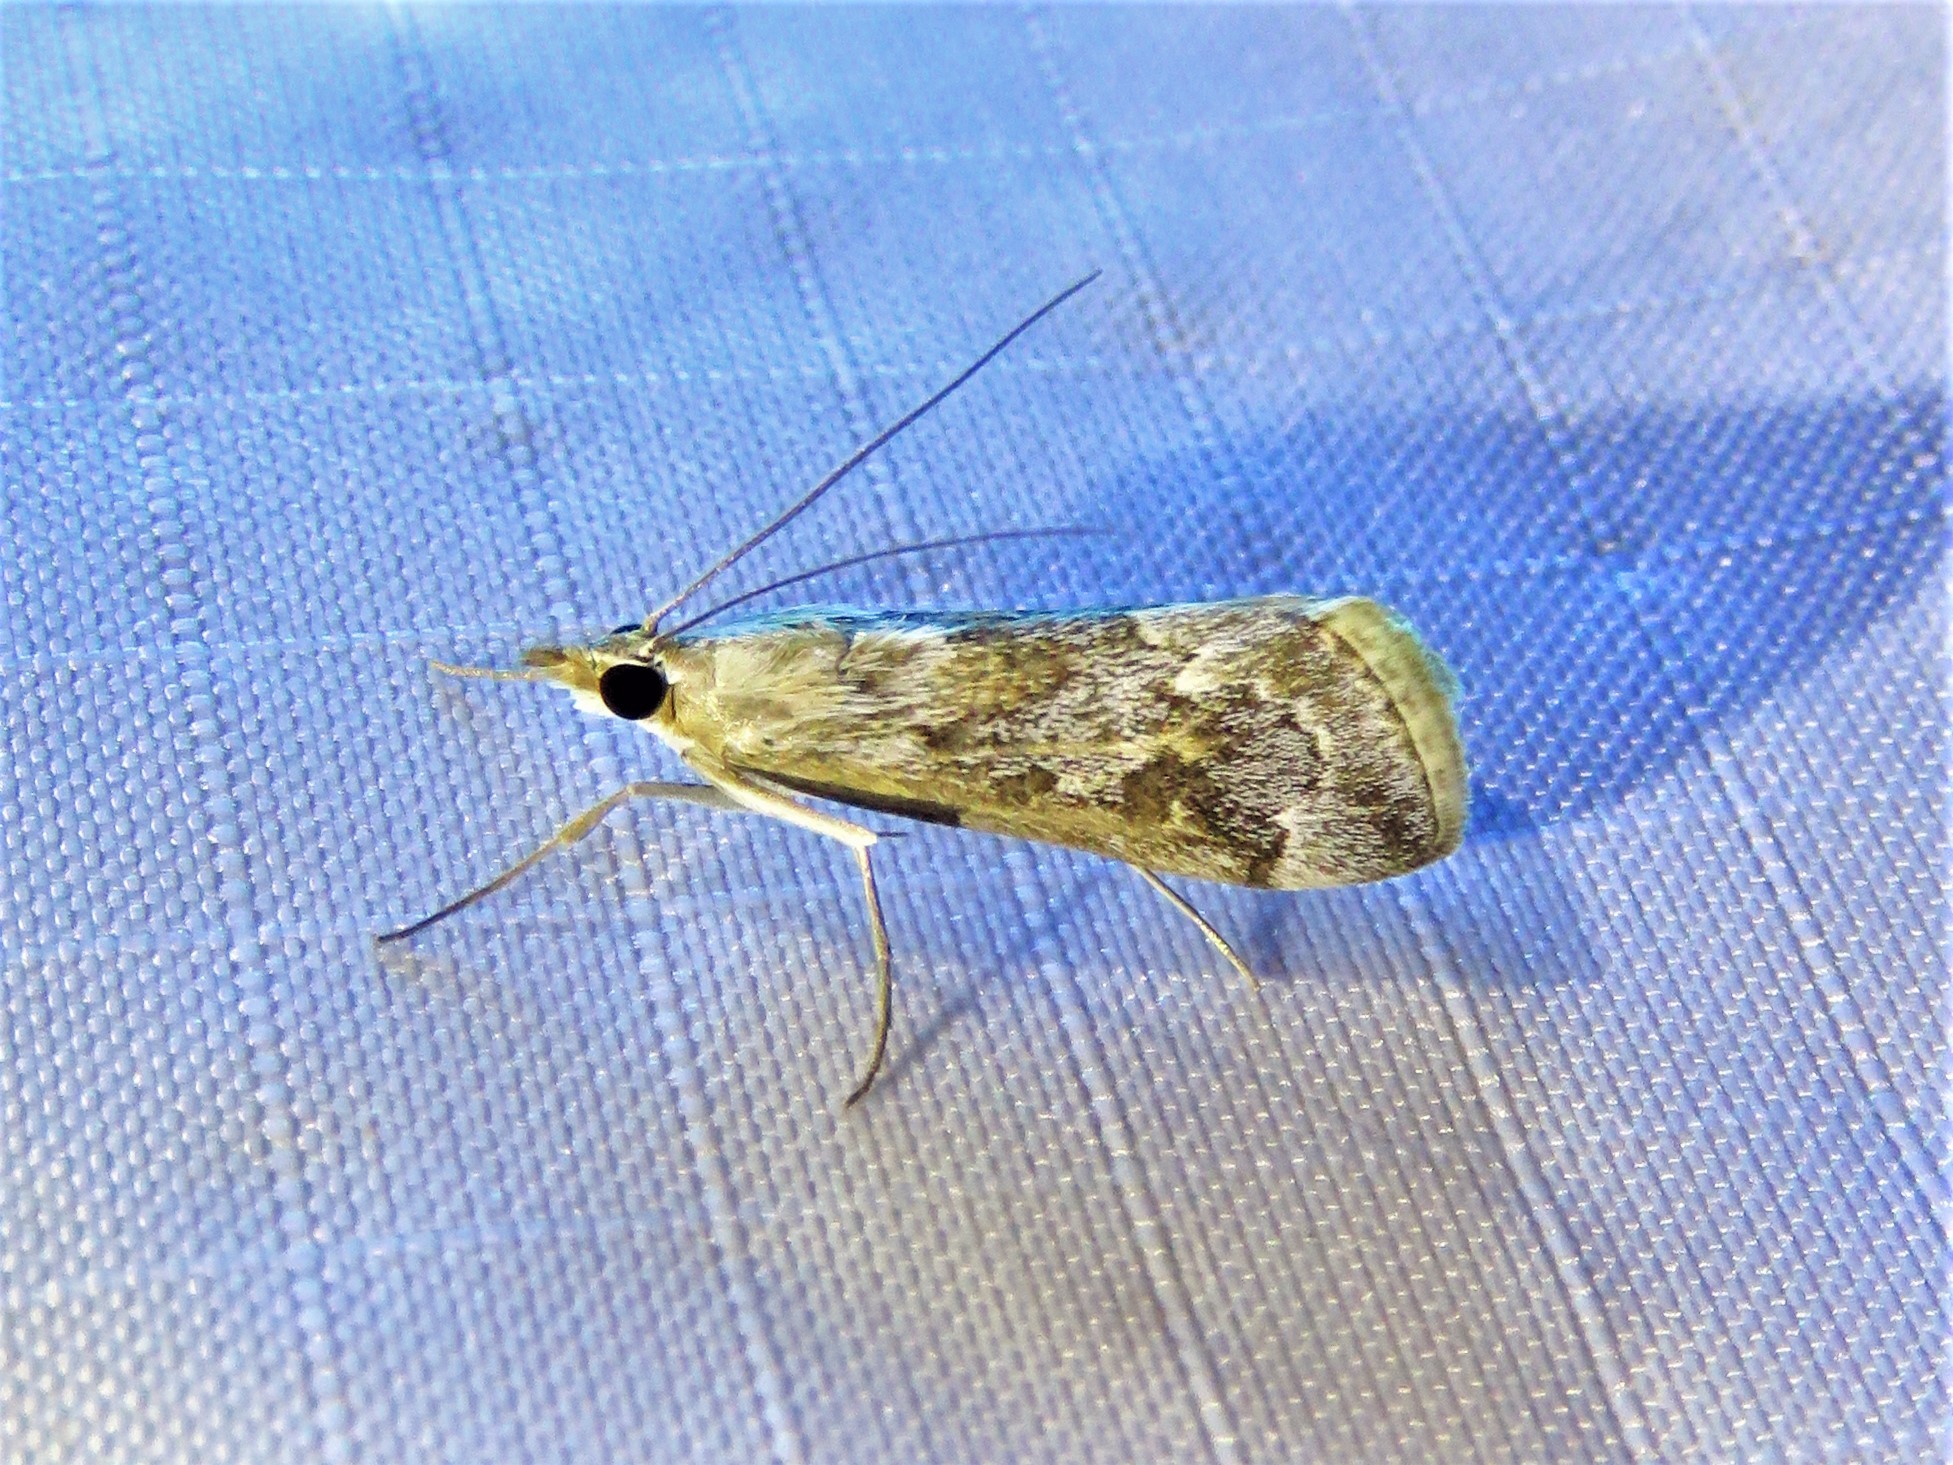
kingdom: Animalia
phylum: Arthropoda
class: Insecta
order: Lepidoptera
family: Crambidae
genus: Loxostege
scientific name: Loxostege allectalis
